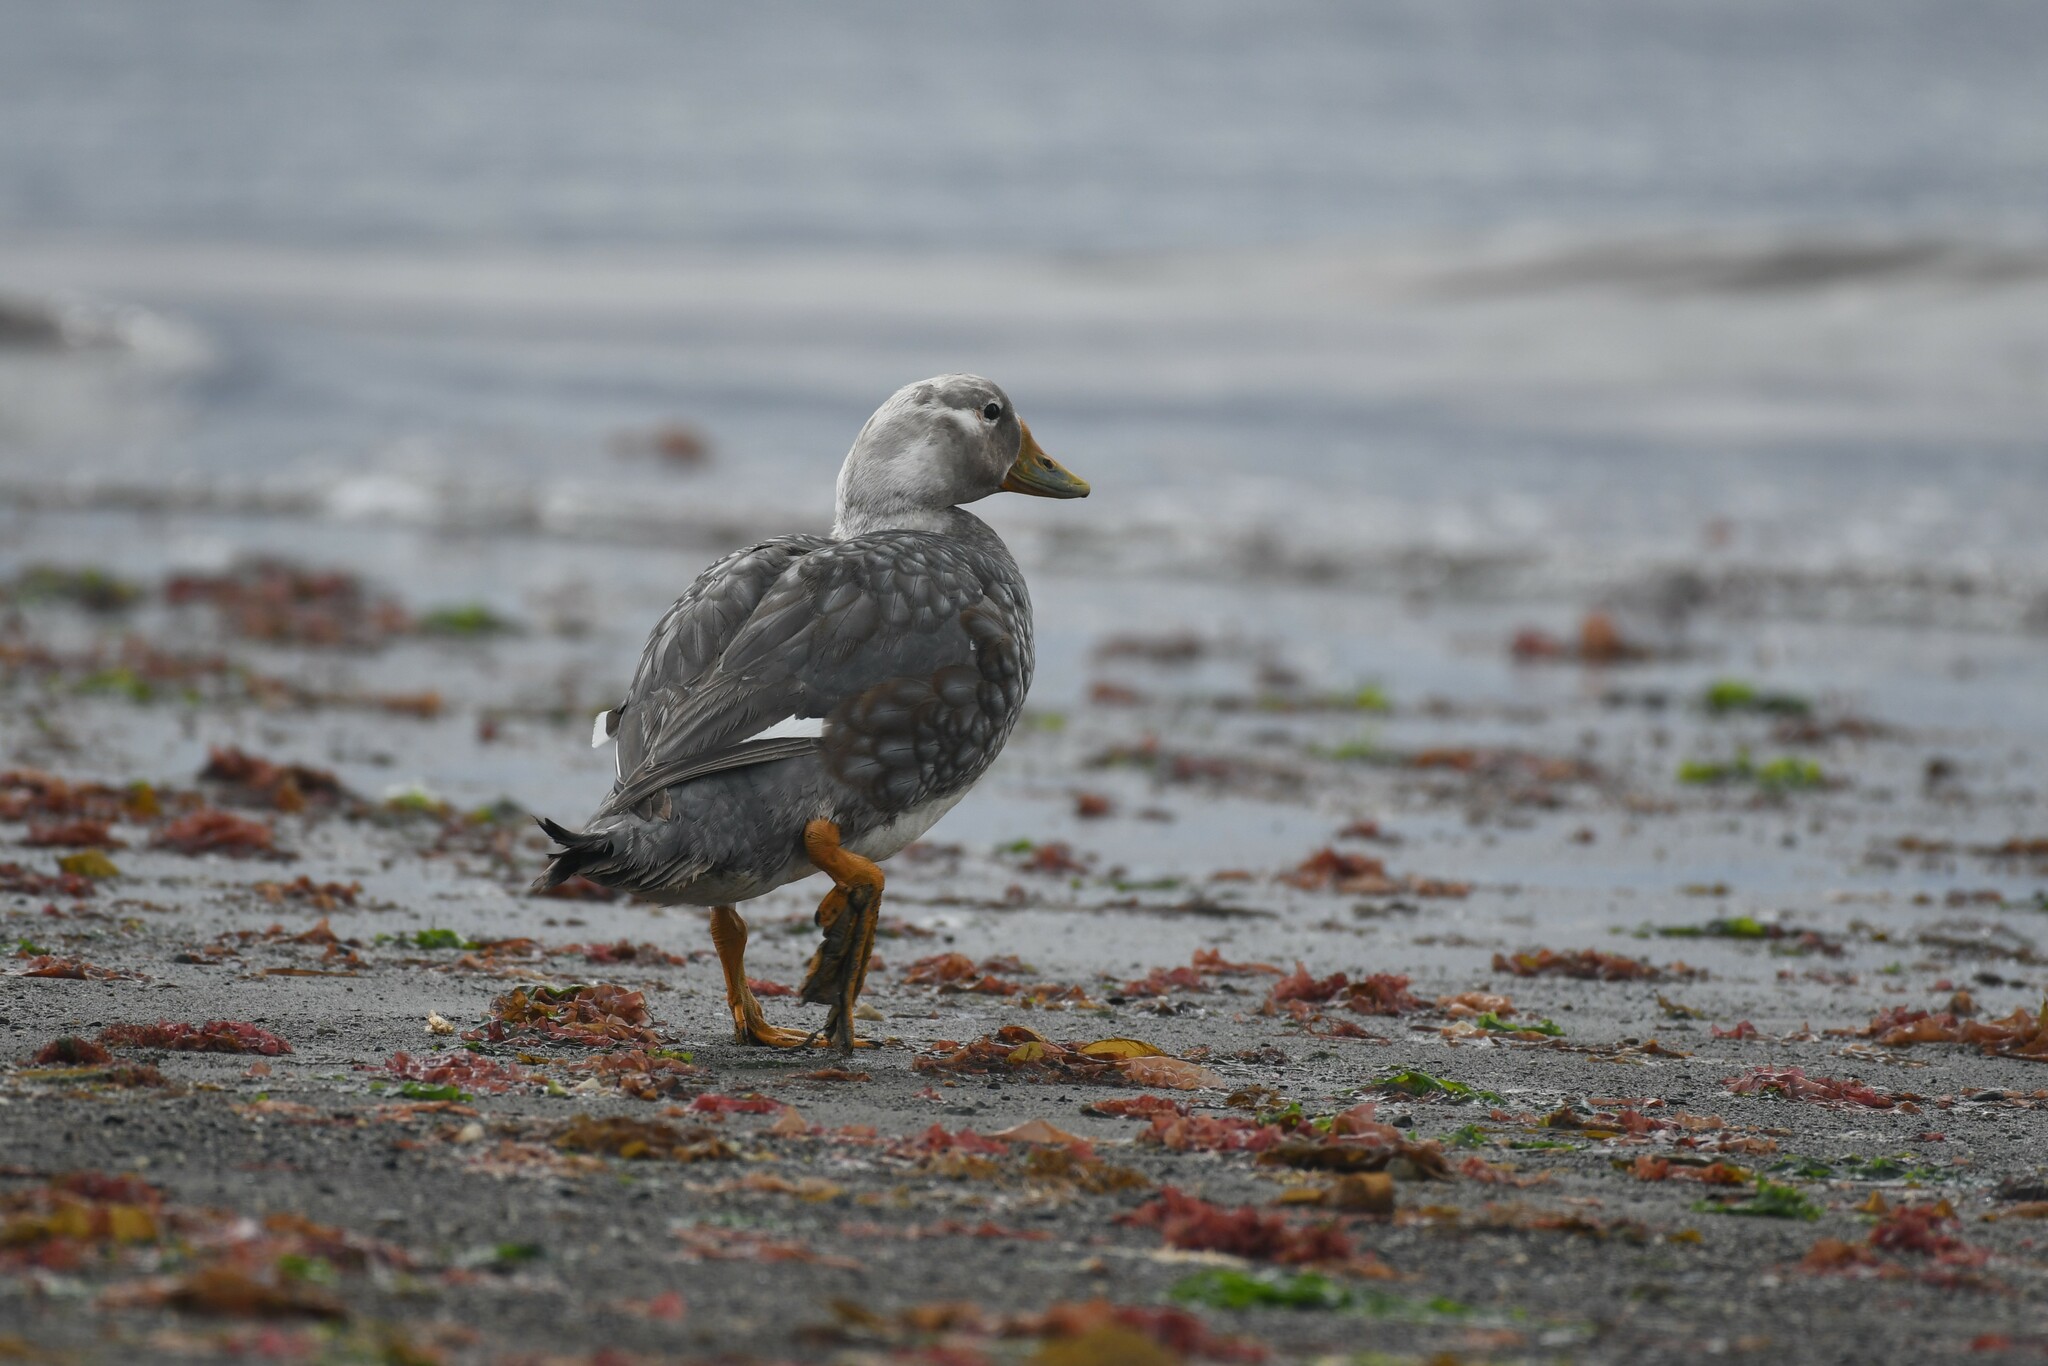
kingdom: Animalia
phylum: Chordata
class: Aves
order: Anseriformes
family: Anatidae
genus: Tachyeres
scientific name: Tachyeres patachonicus
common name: Flying steamer duck
